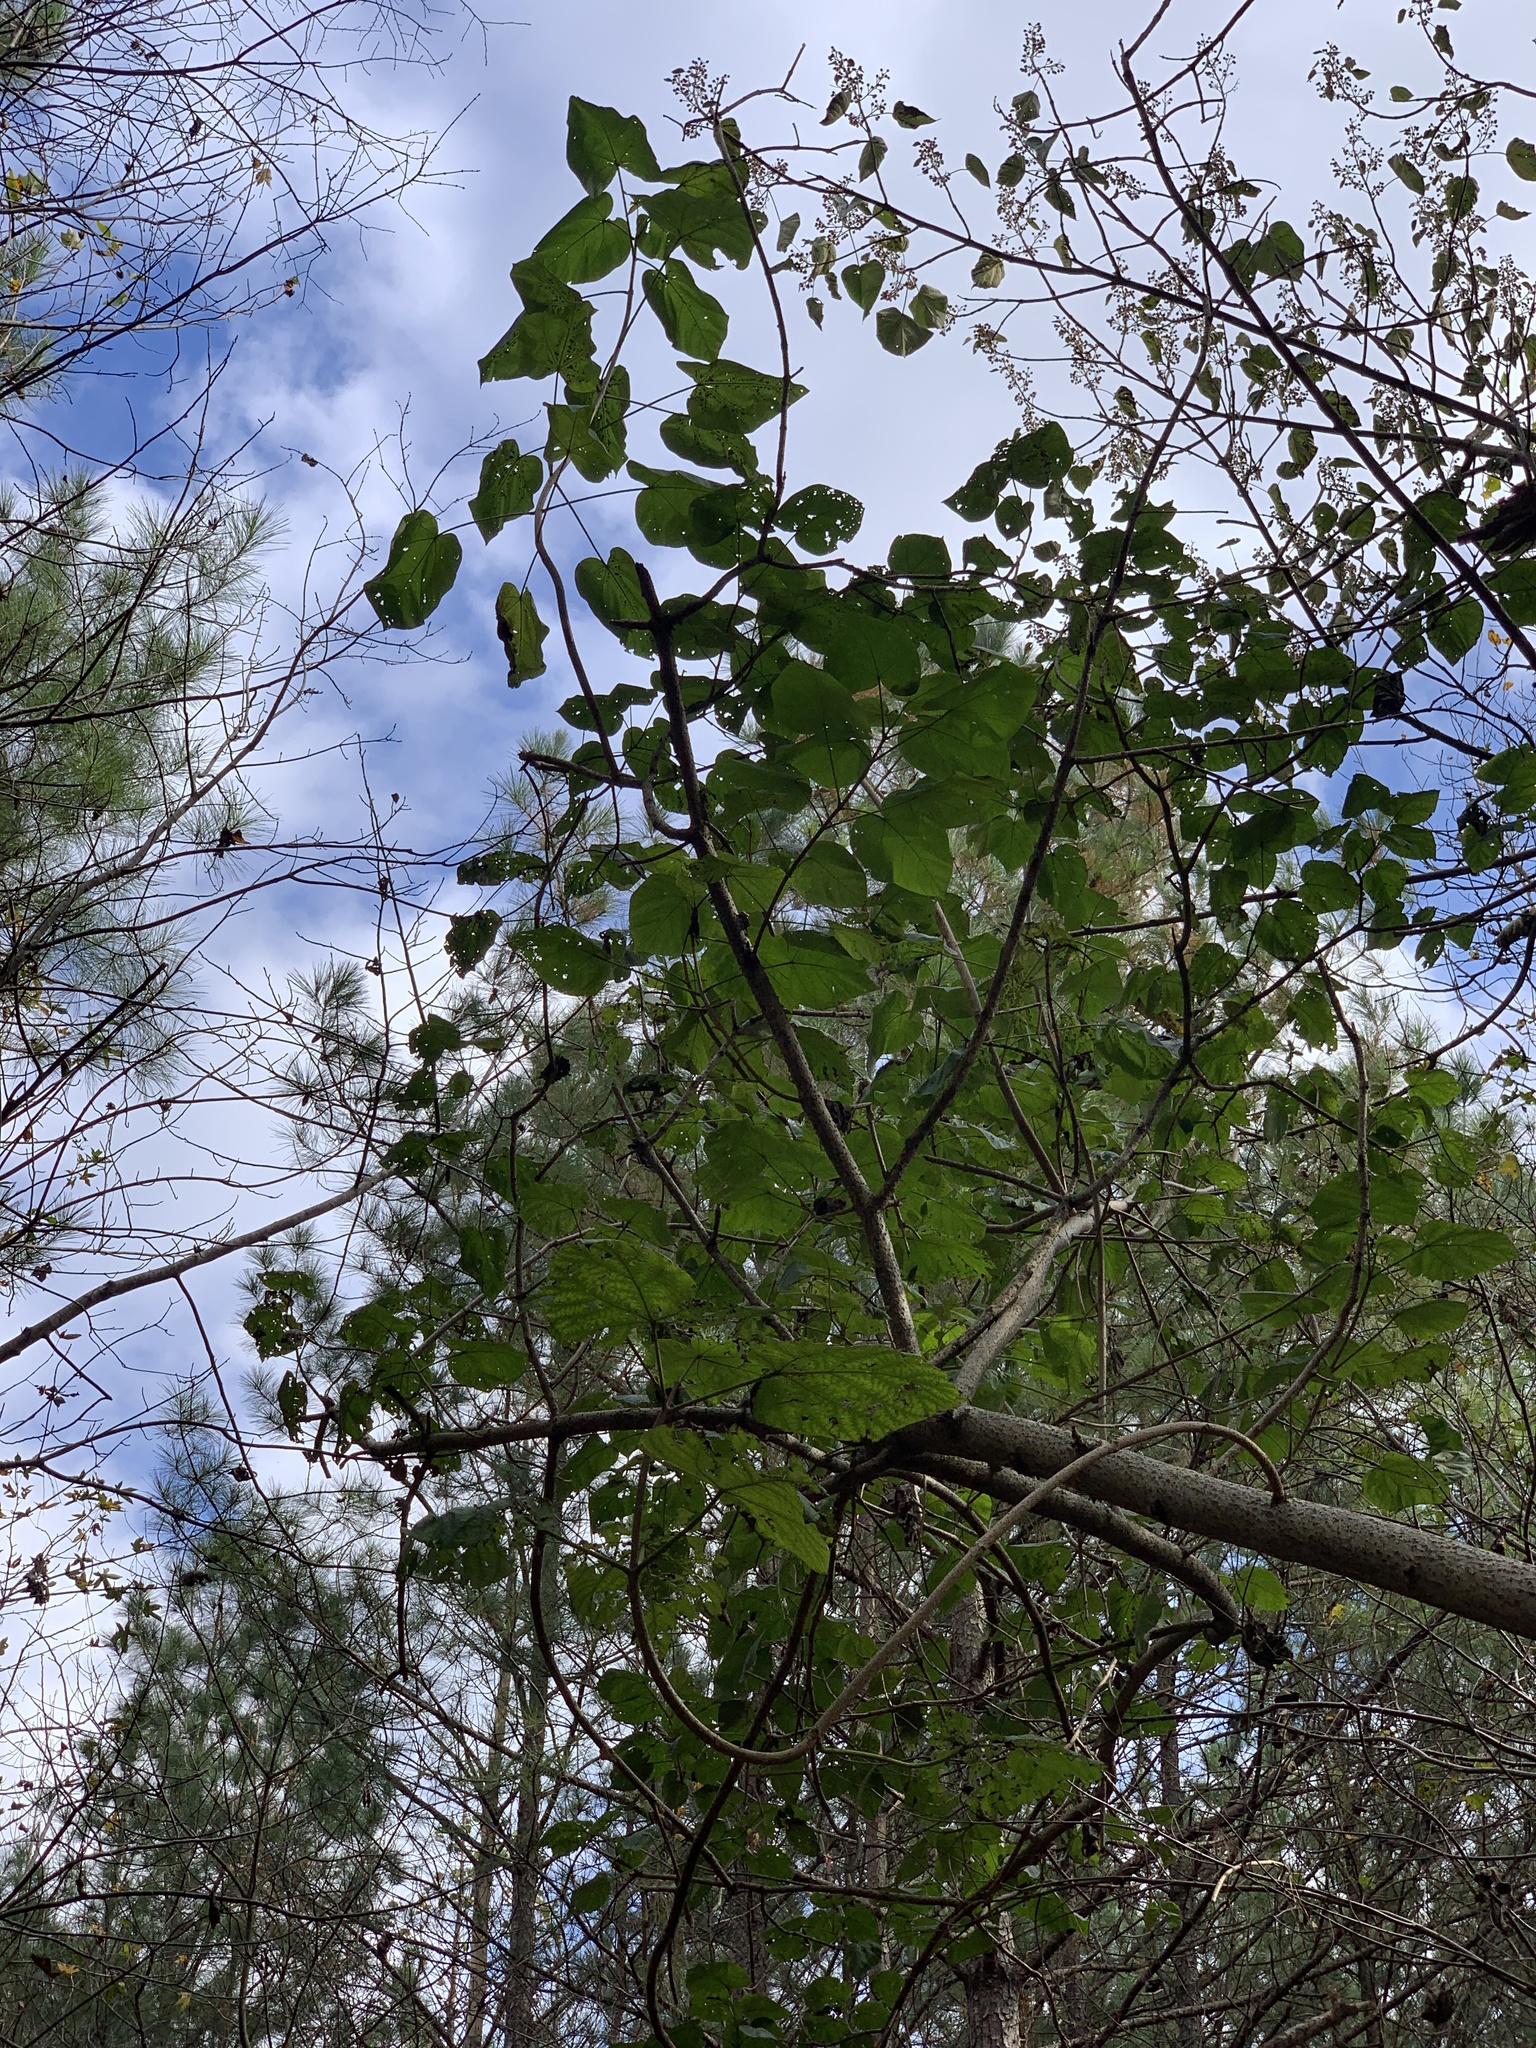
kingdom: Plantae
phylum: Tracheophyta
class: Magnoliopsida
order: Lamiales
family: Paulowniaceae
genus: Paulownia
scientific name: Paulownia tomentosa
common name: Foxglove-tree
